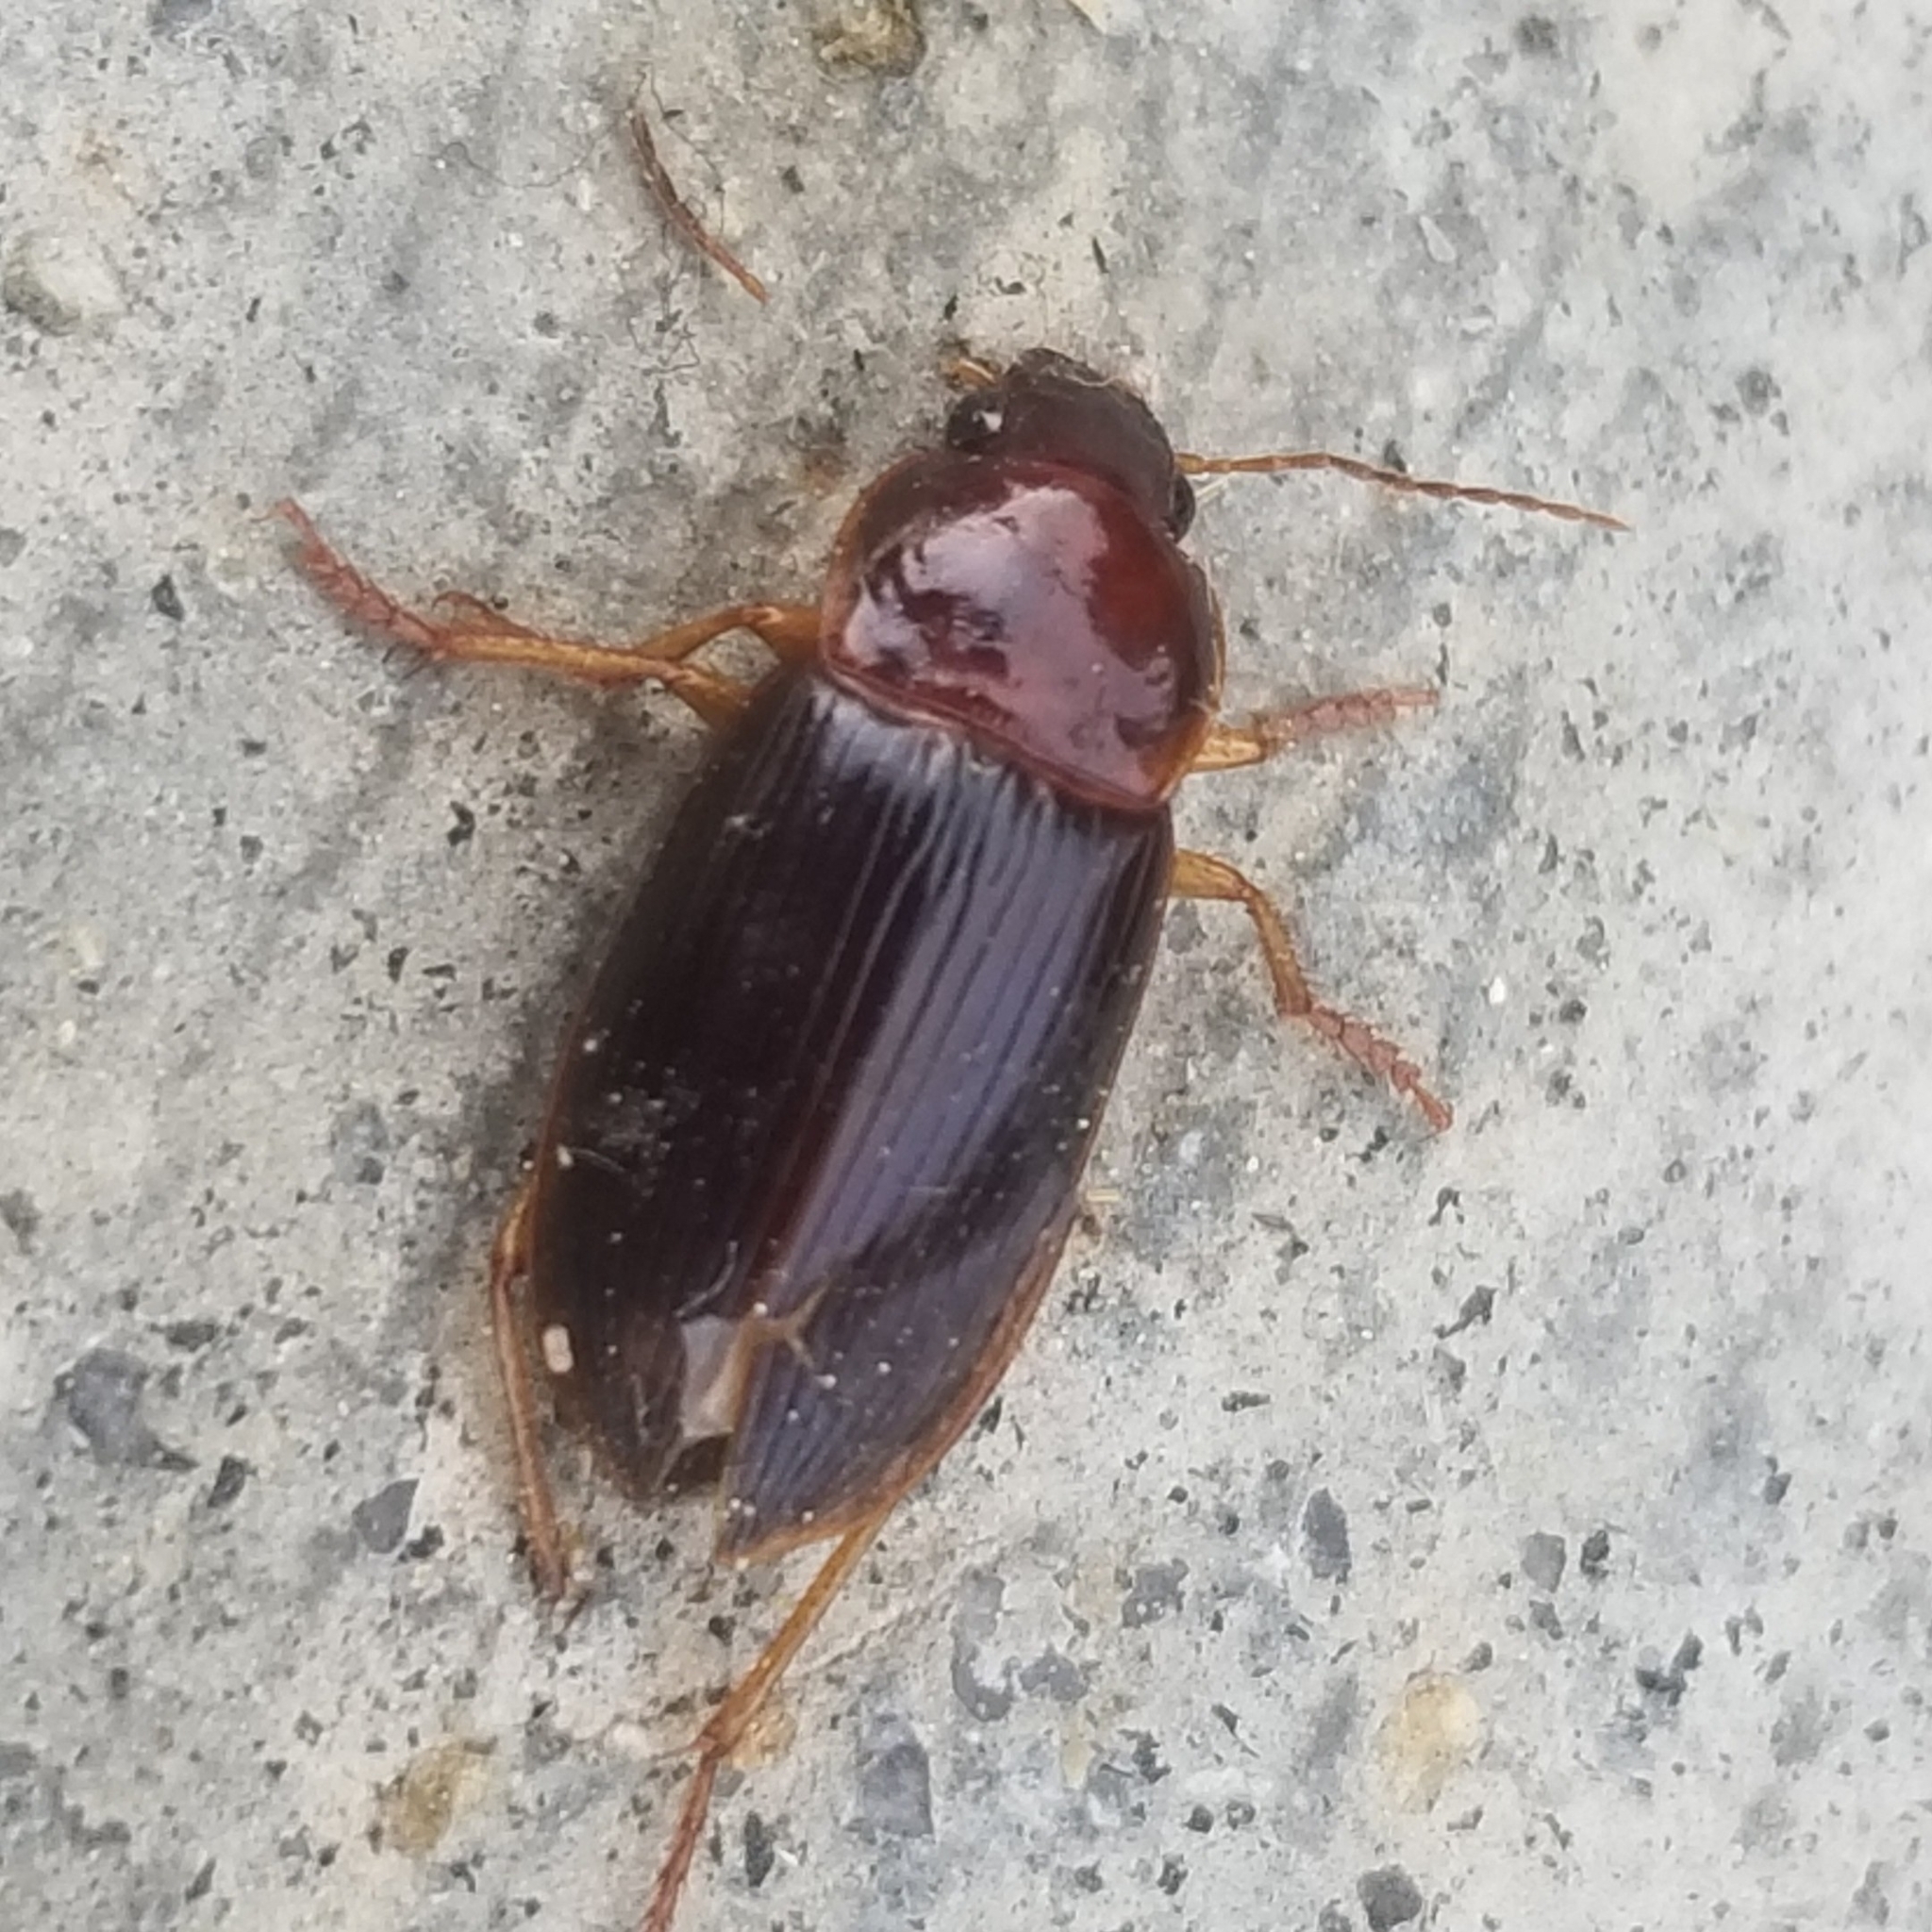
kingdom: Animalia
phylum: Arthropoda
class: Insecta
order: Coleoptera
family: Carabidae
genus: Calathus
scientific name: Calathus ruficollis
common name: Red-collared harp ground beetle
